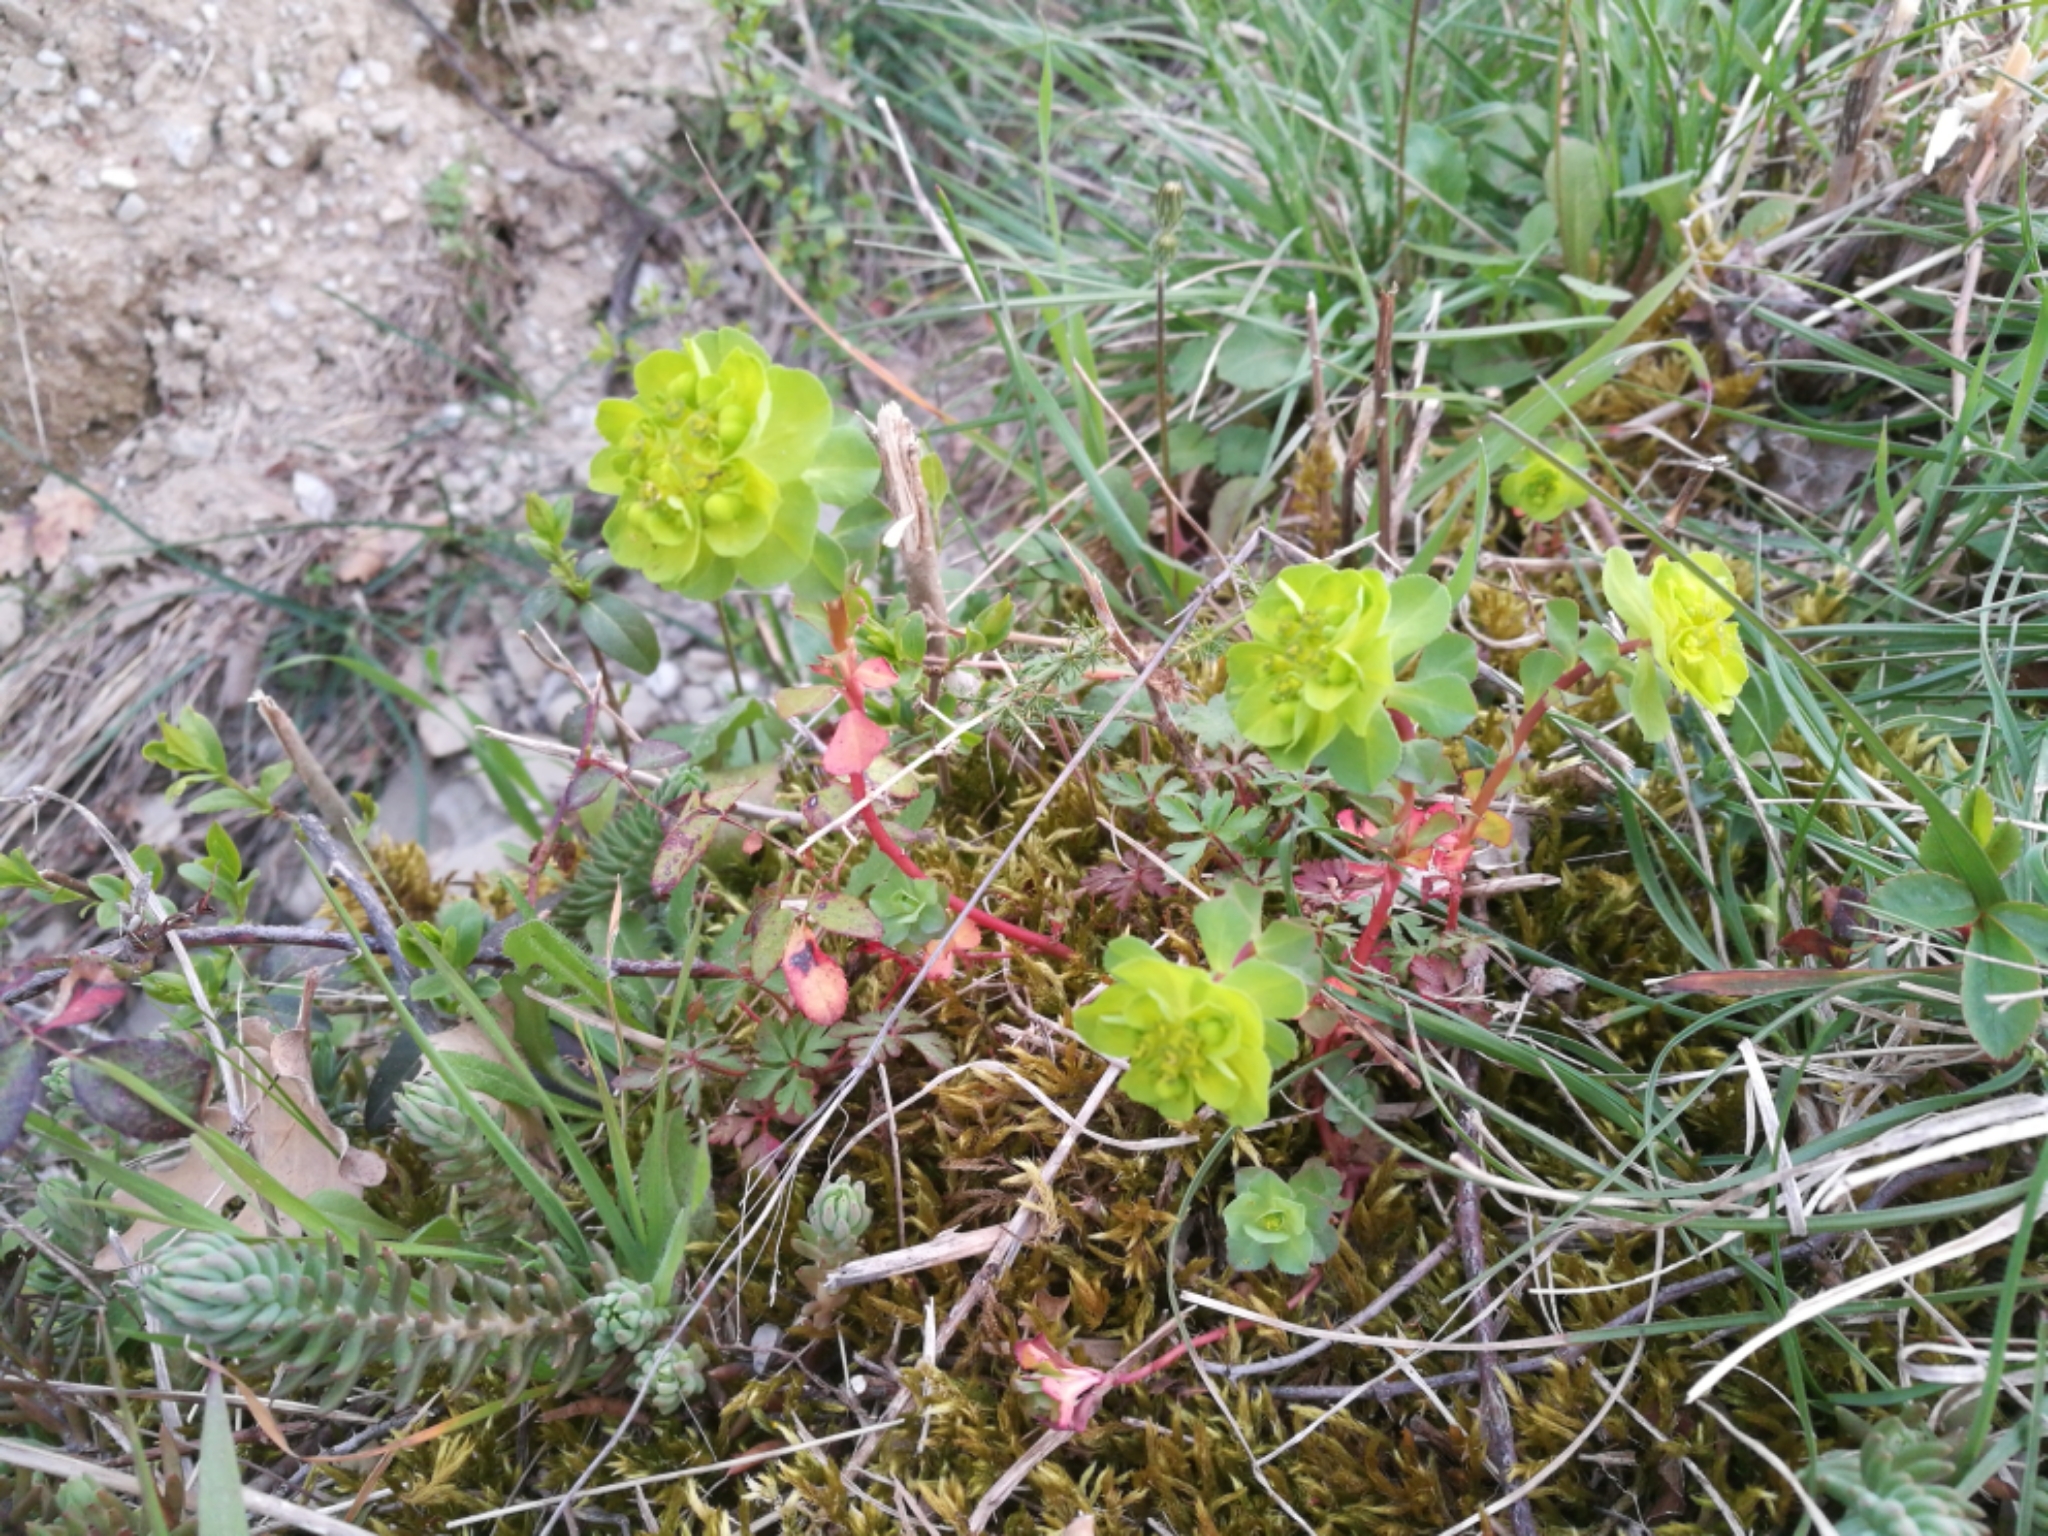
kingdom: Plantae
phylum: Tracheophyta
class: Magnoliopsida
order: Malpighiales
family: Euphorbiaceae
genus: Euphorbia
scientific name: Euphorbia helioscopia
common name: Sun spurge
